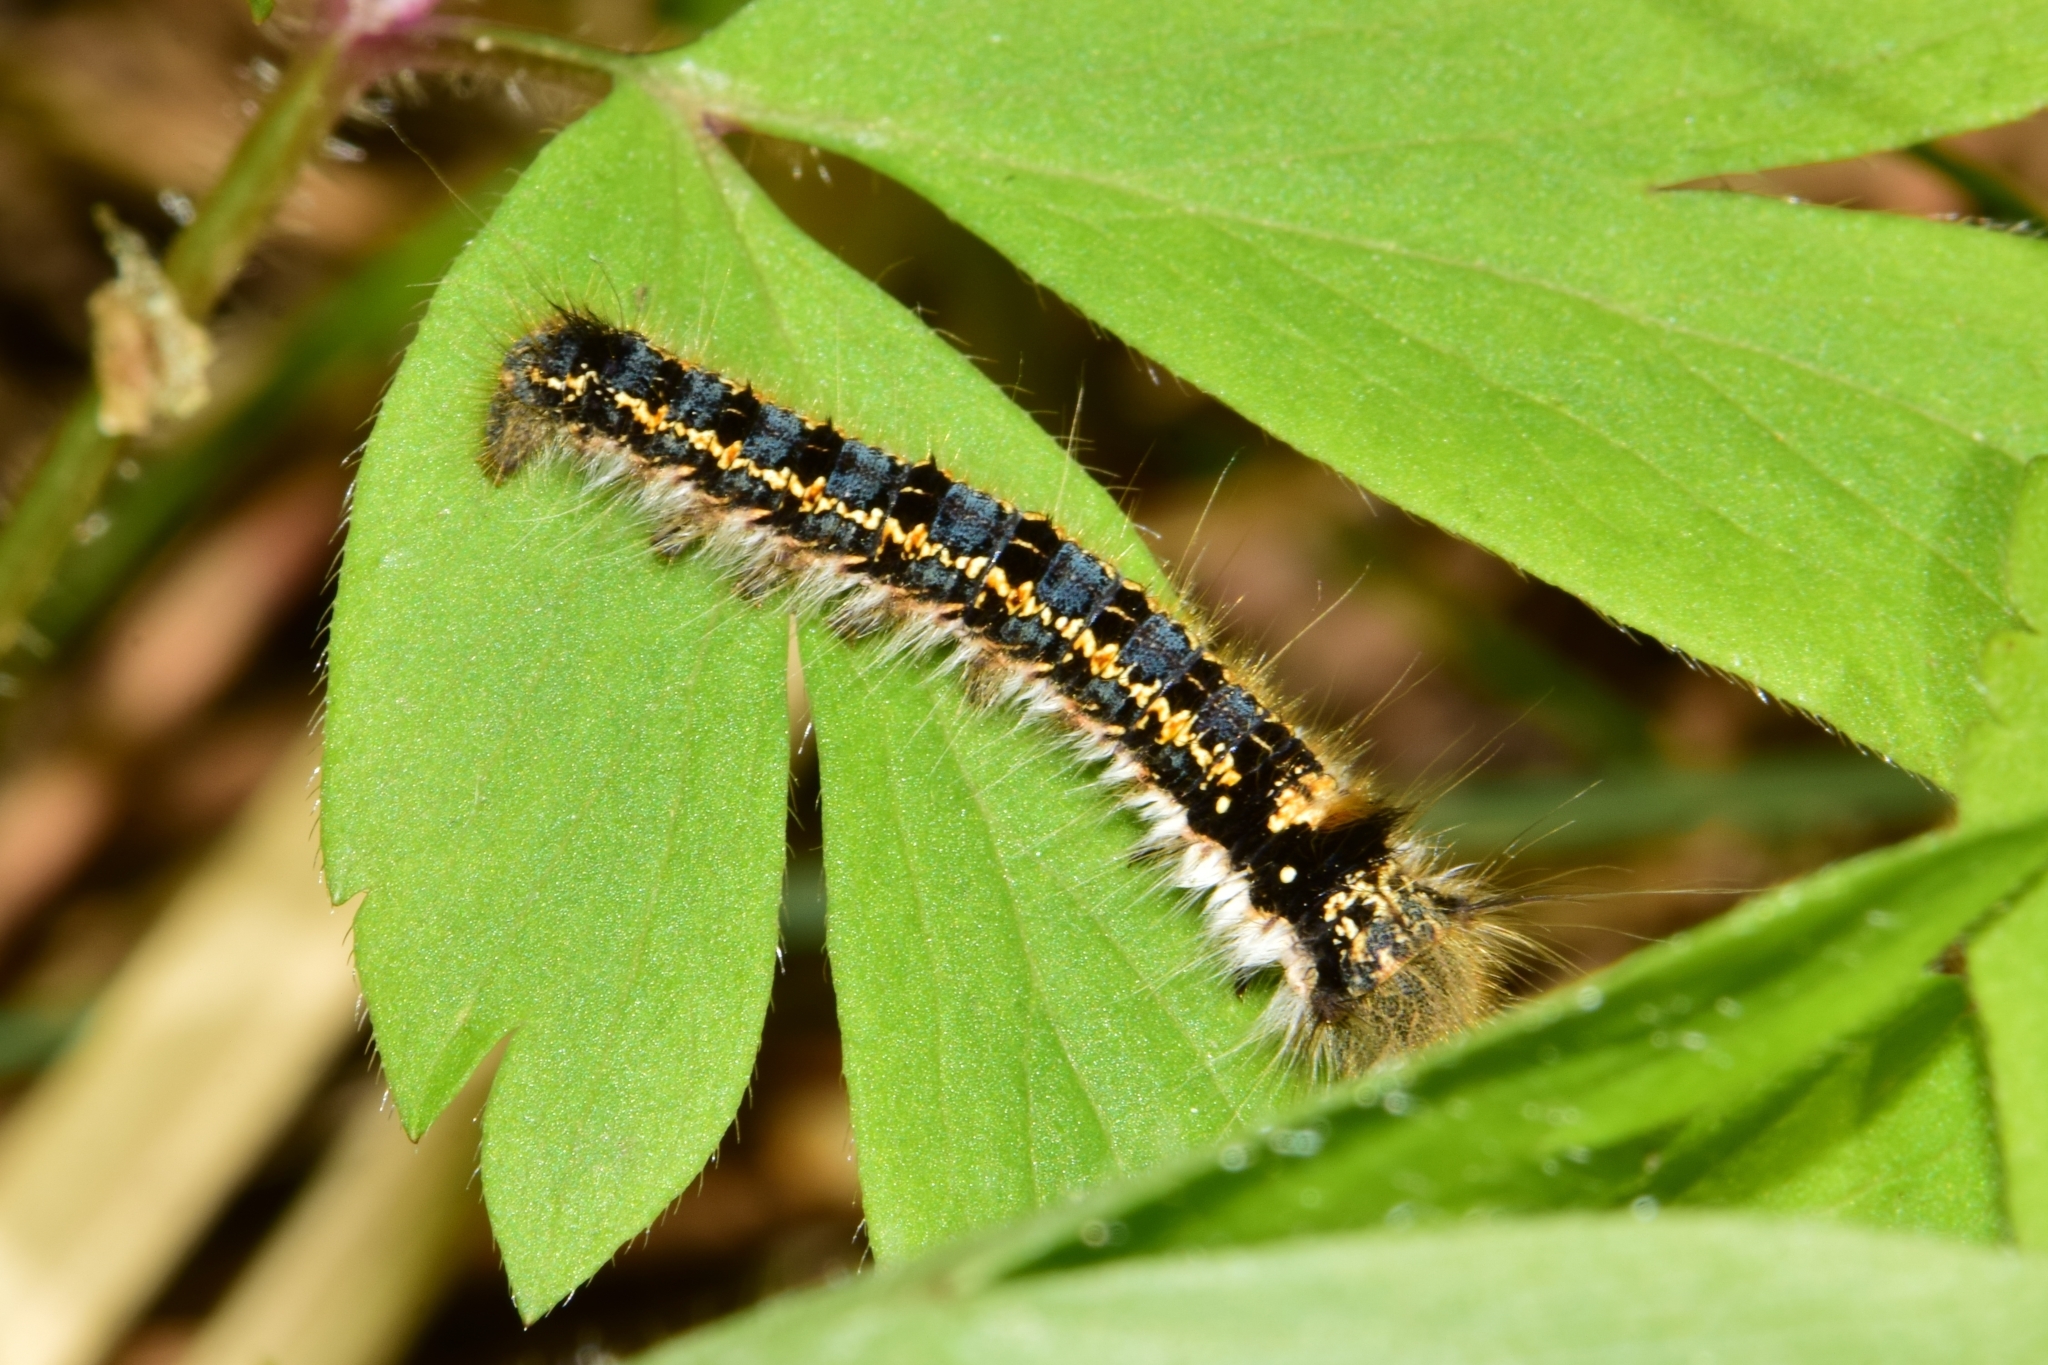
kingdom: Animalia
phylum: Arthropoda
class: Insecta
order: Lepidoptera
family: Lasiocampidae
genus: Euthrix
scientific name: Euthrix potatoria
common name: Drinker
